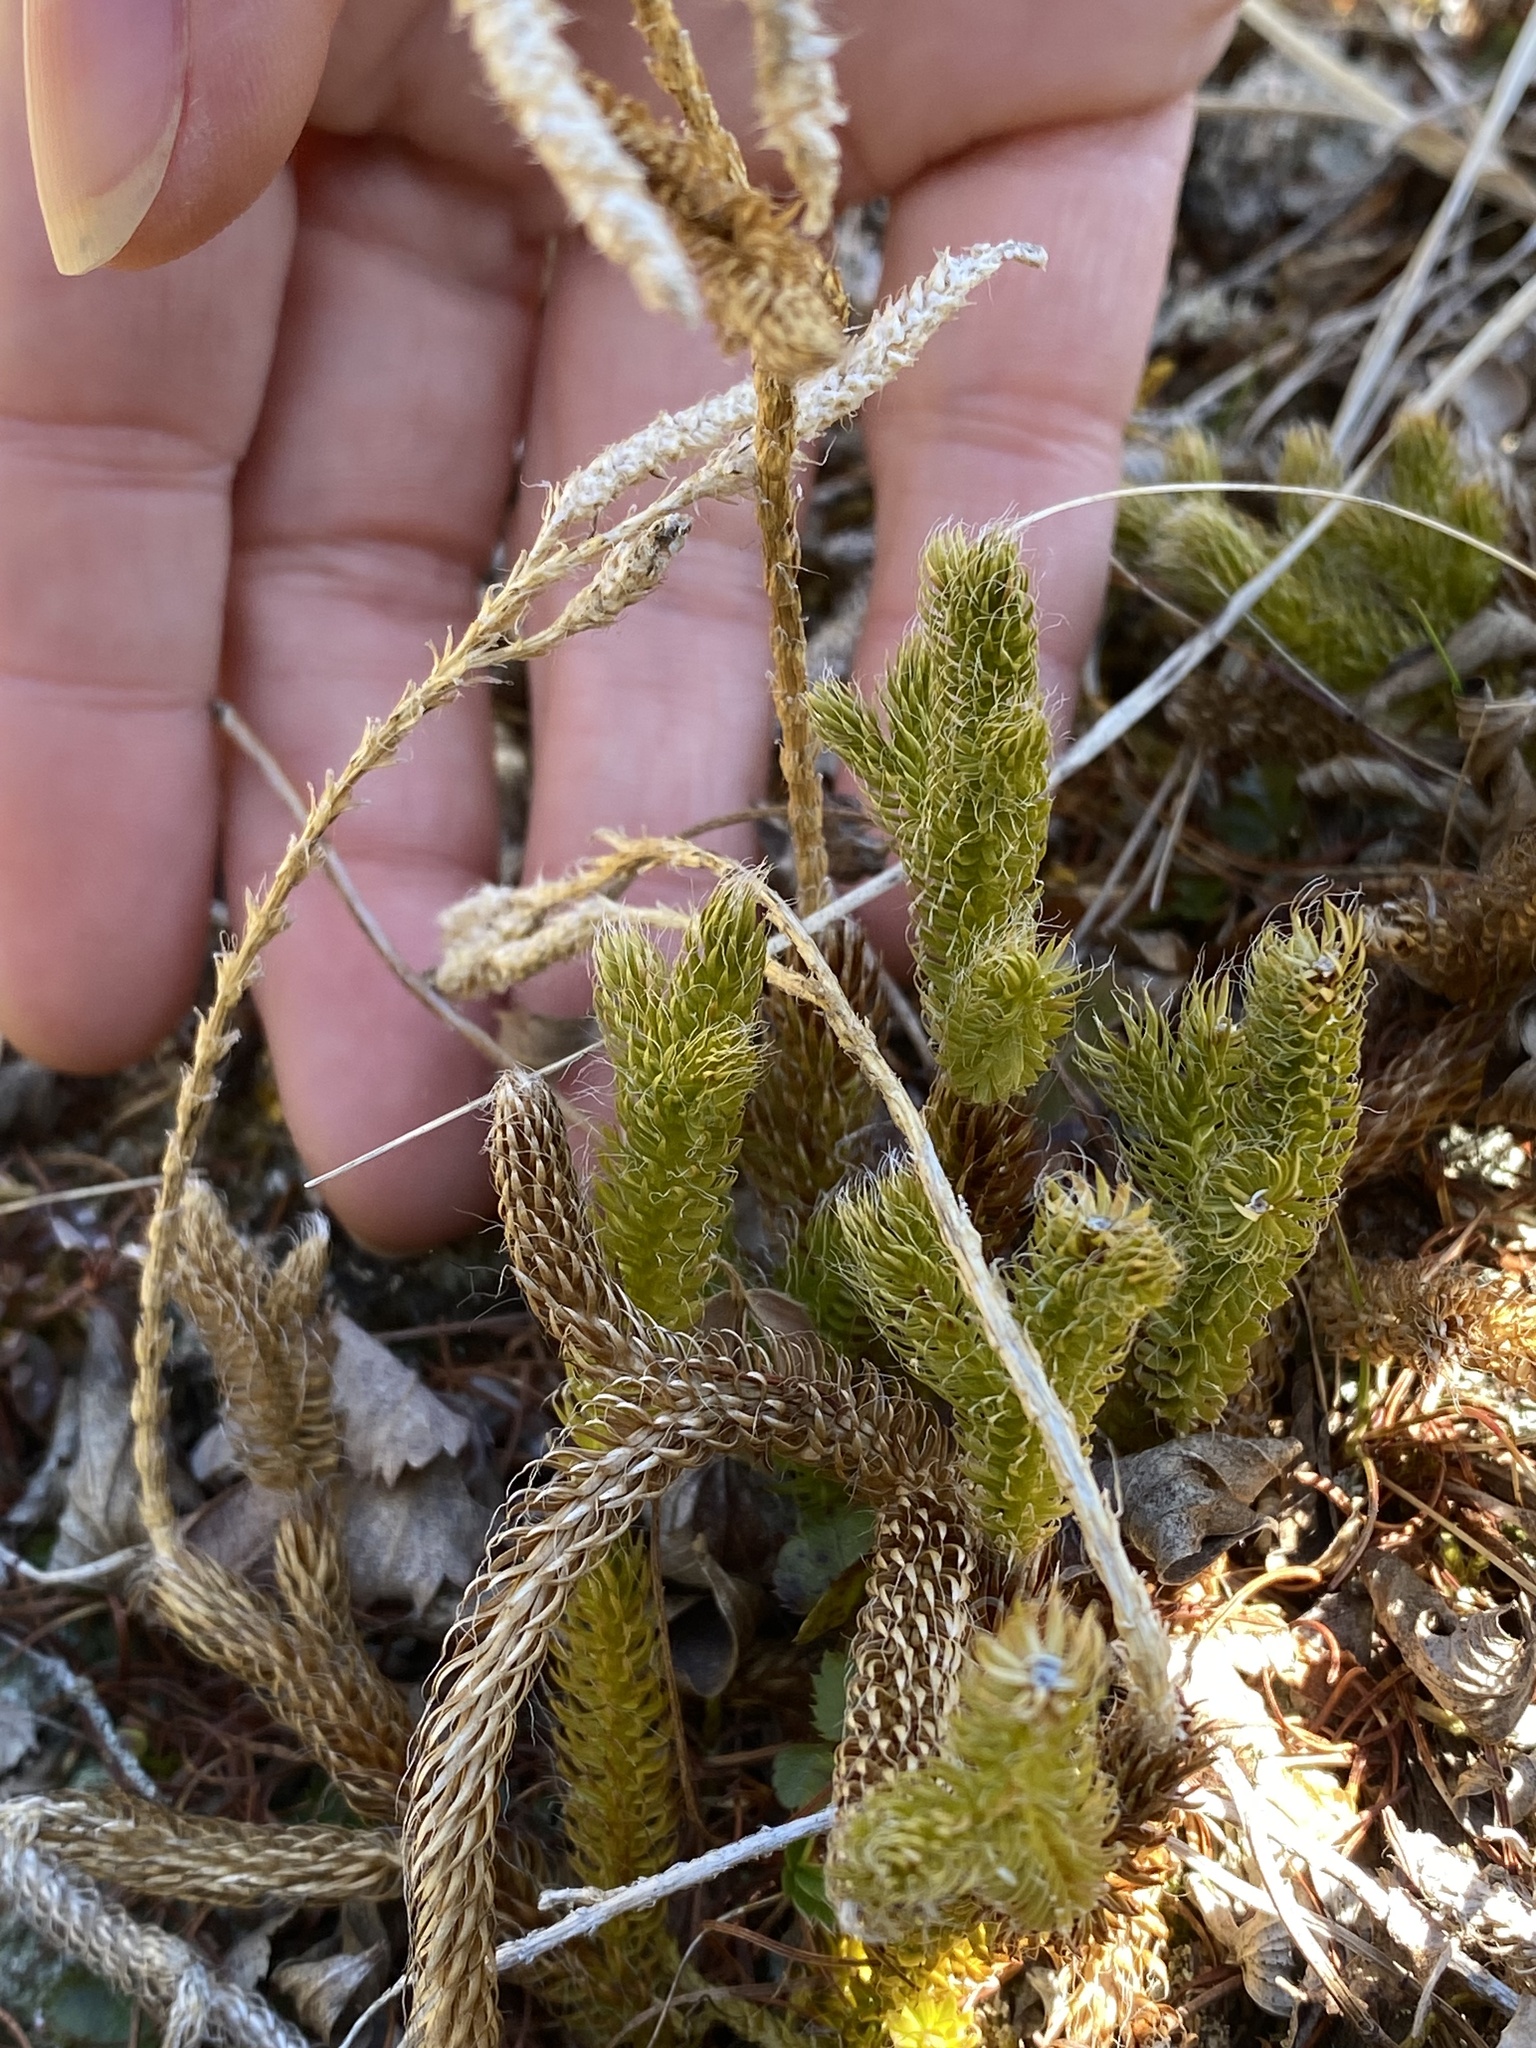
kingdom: Plantae
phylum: Tracheophyta
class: Lycopodiopsida
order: Lycopodiales
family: Lycopodiaceae
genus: Lycopodium
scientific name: Lycopodium clavatum
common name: Stag's-horn clubmoss
